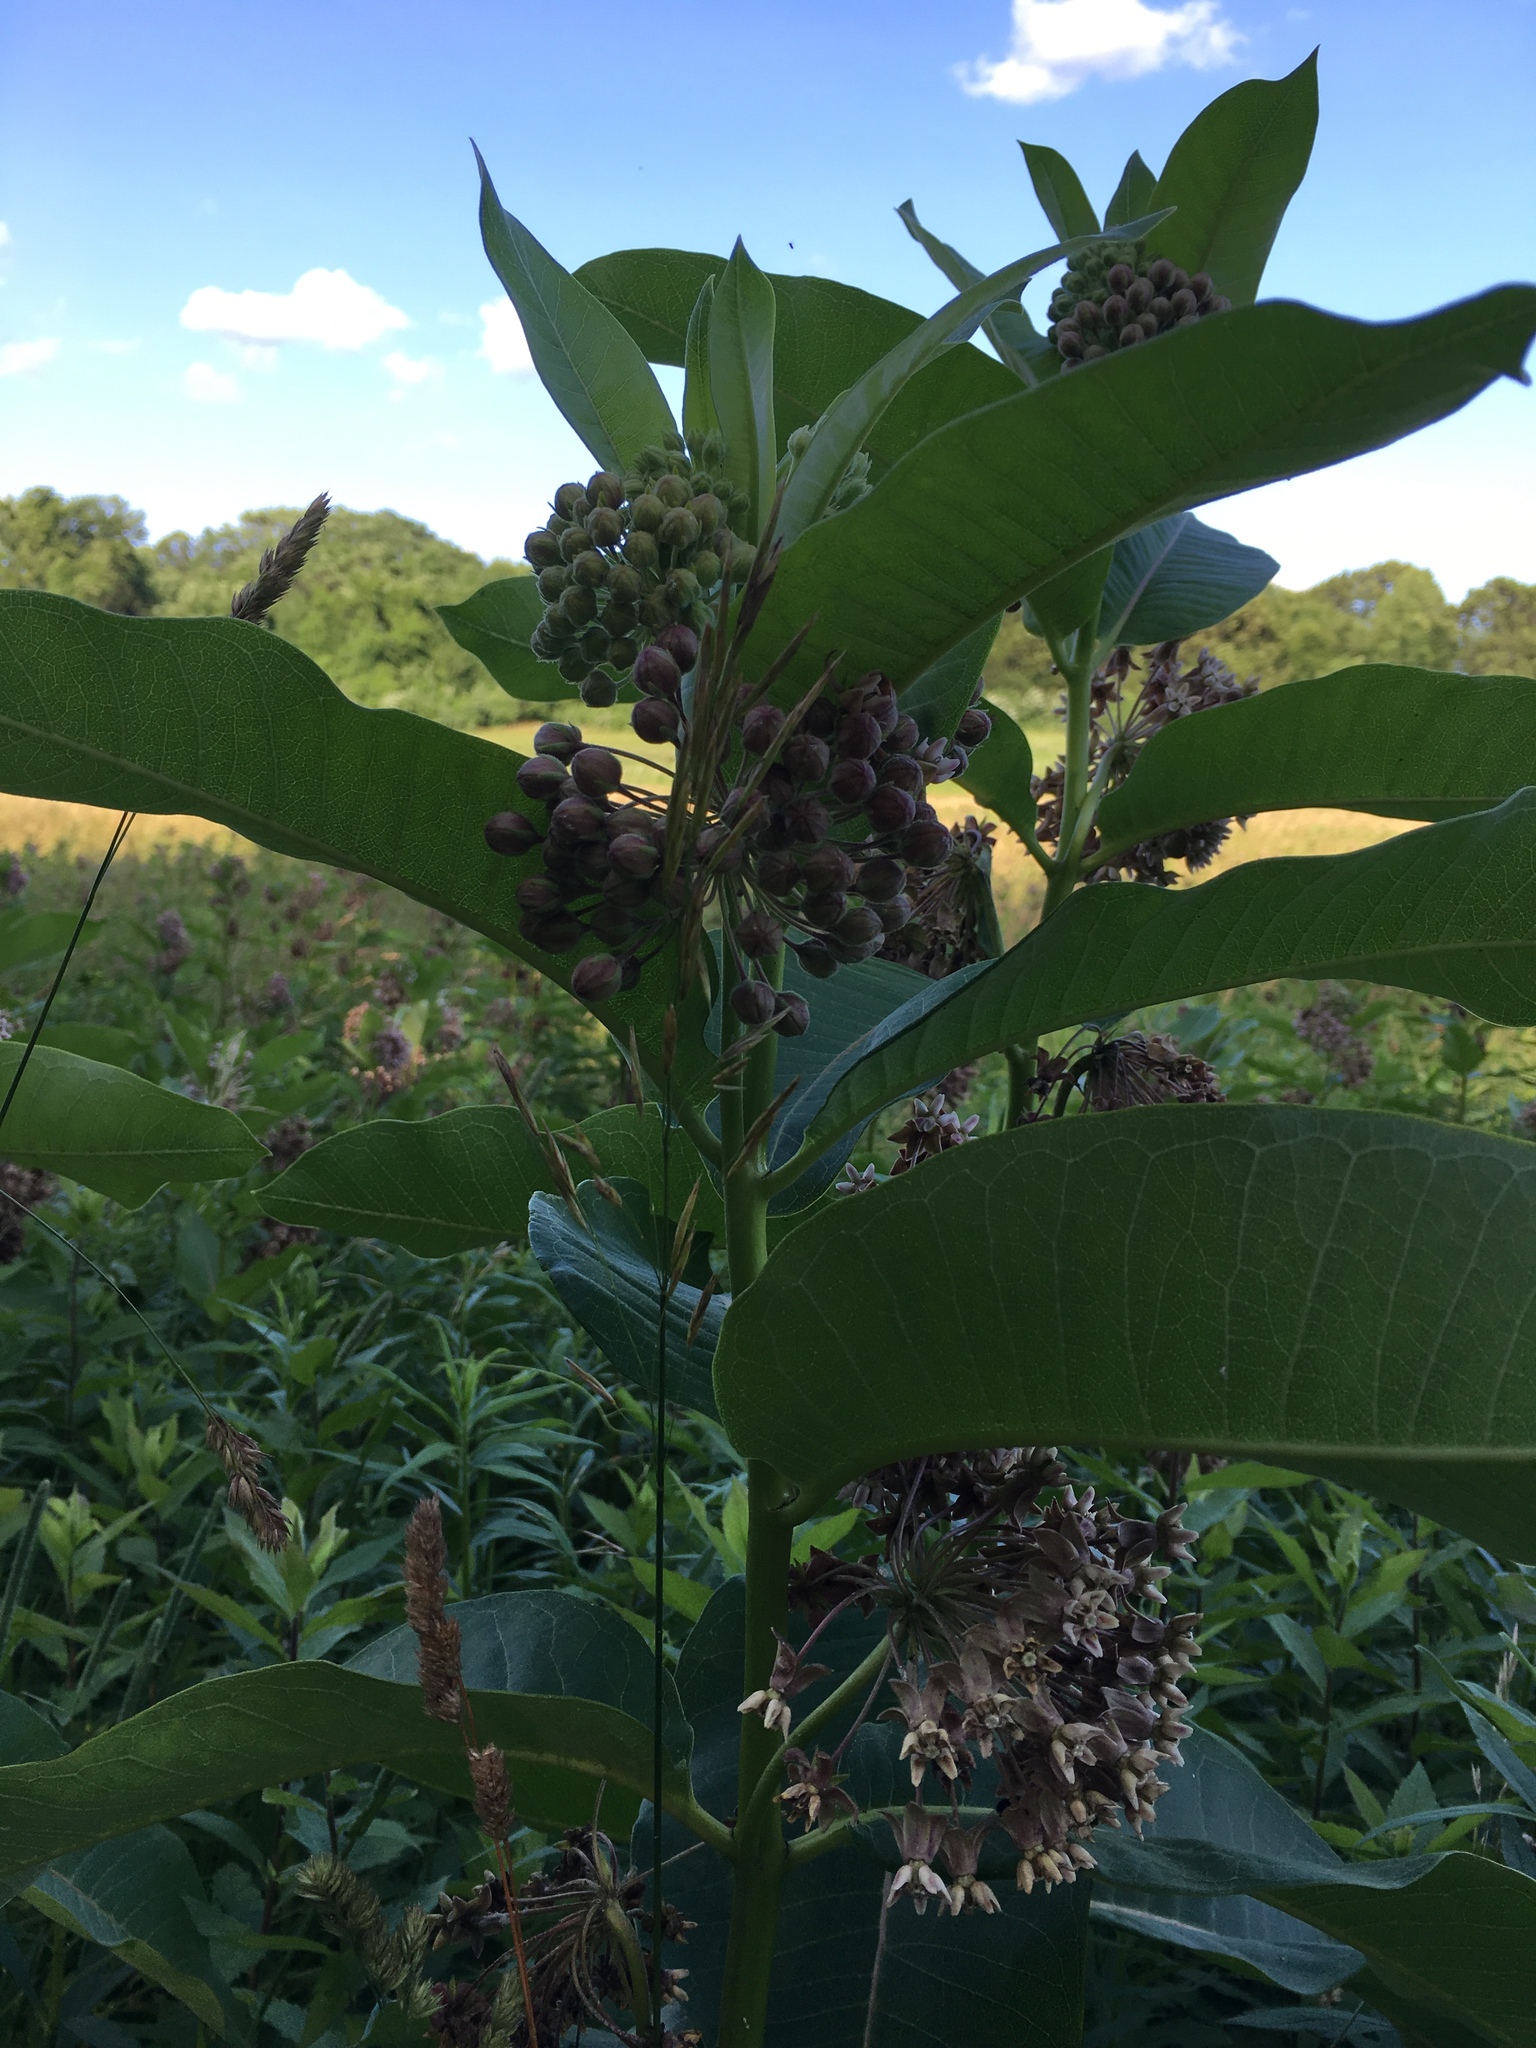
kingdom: Plantae
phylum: Tracheophyta
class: Magnoliopsida
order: Gentianales
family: Apocynaceae
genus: Asclepias
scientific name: Asclepias syriaca
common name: Common milkweed
